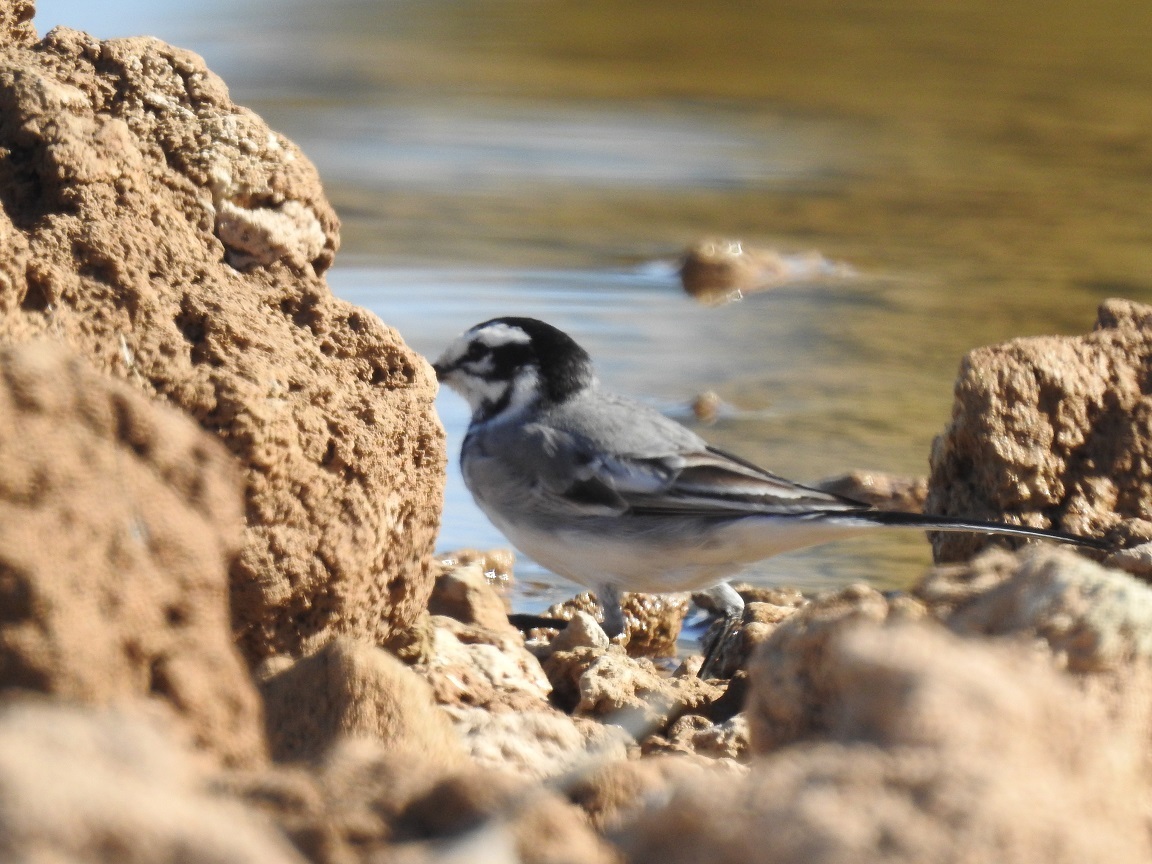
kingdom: Animalia
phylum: Chordata
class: Aves
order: Passeriformes
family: Motacillidae
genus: Motacilla
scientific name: Motacilla alba
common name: White wagtail
